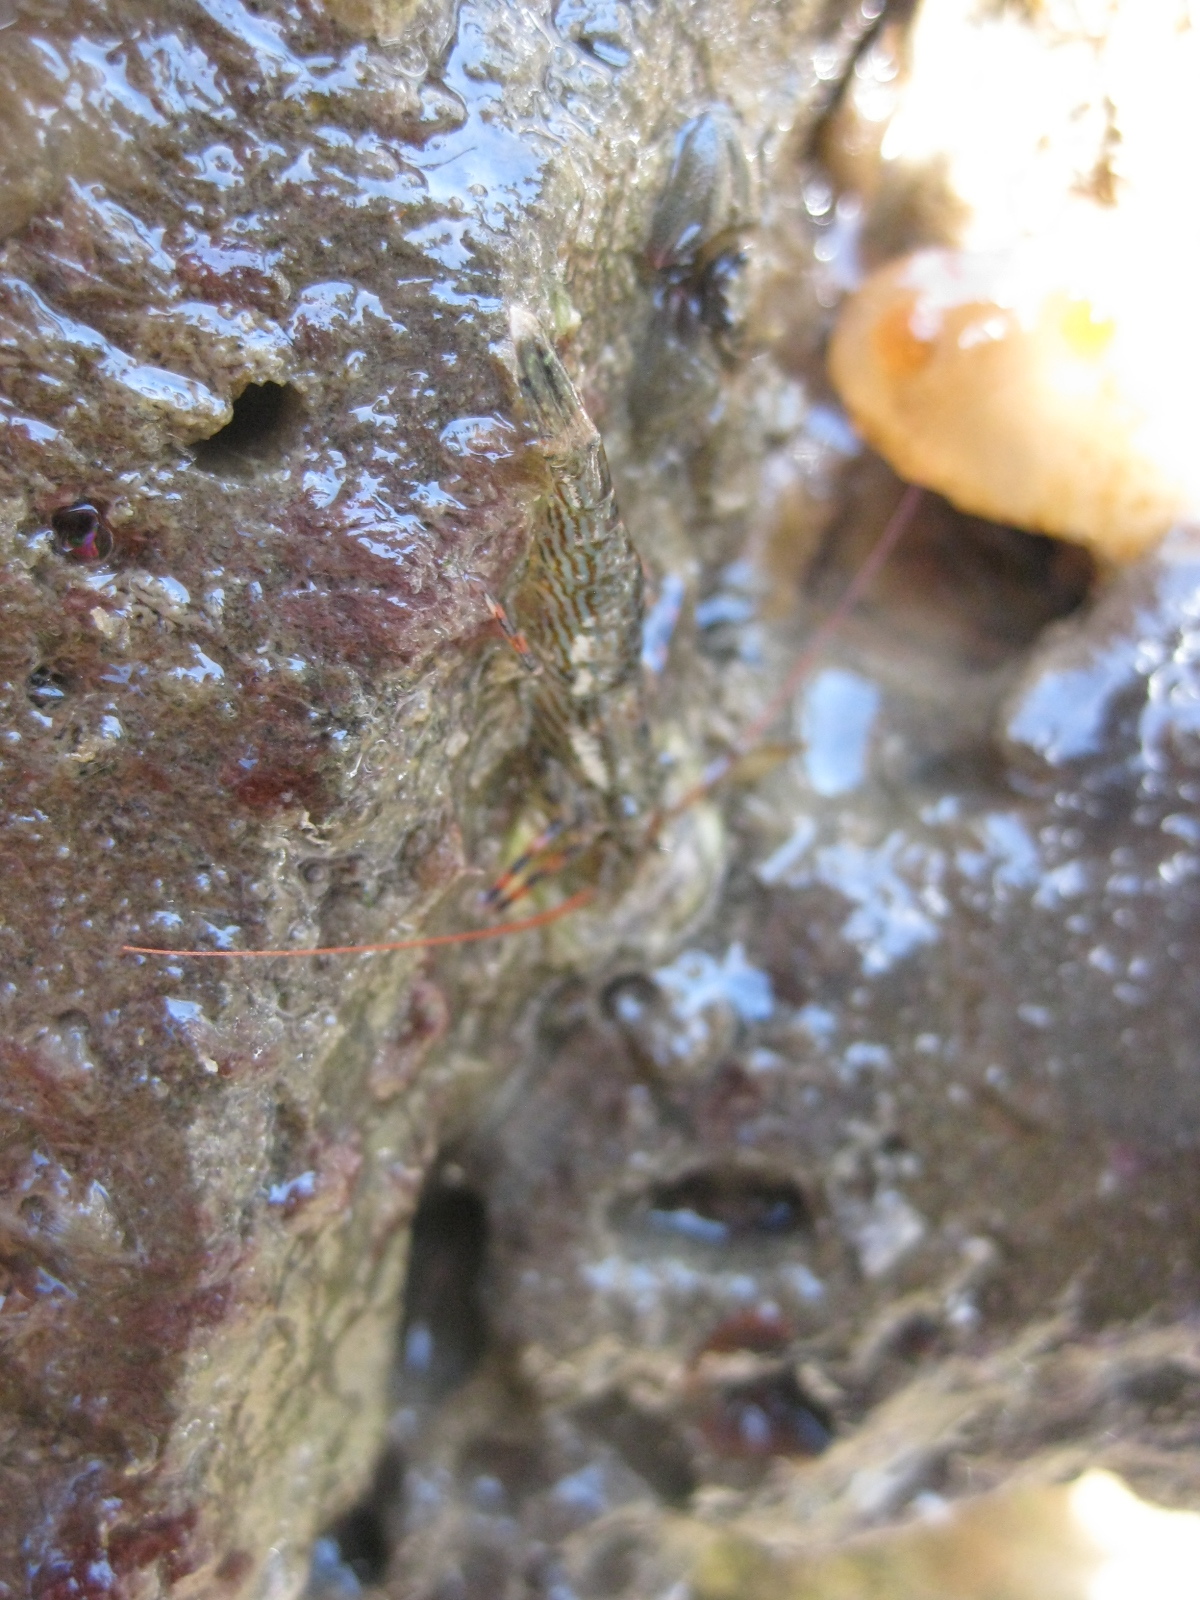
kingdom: Animalia
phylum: Arthropoda
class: Malacostraca
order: Decapoda
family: Hippolytidae
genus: Alope
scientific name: Alope spinifrons
